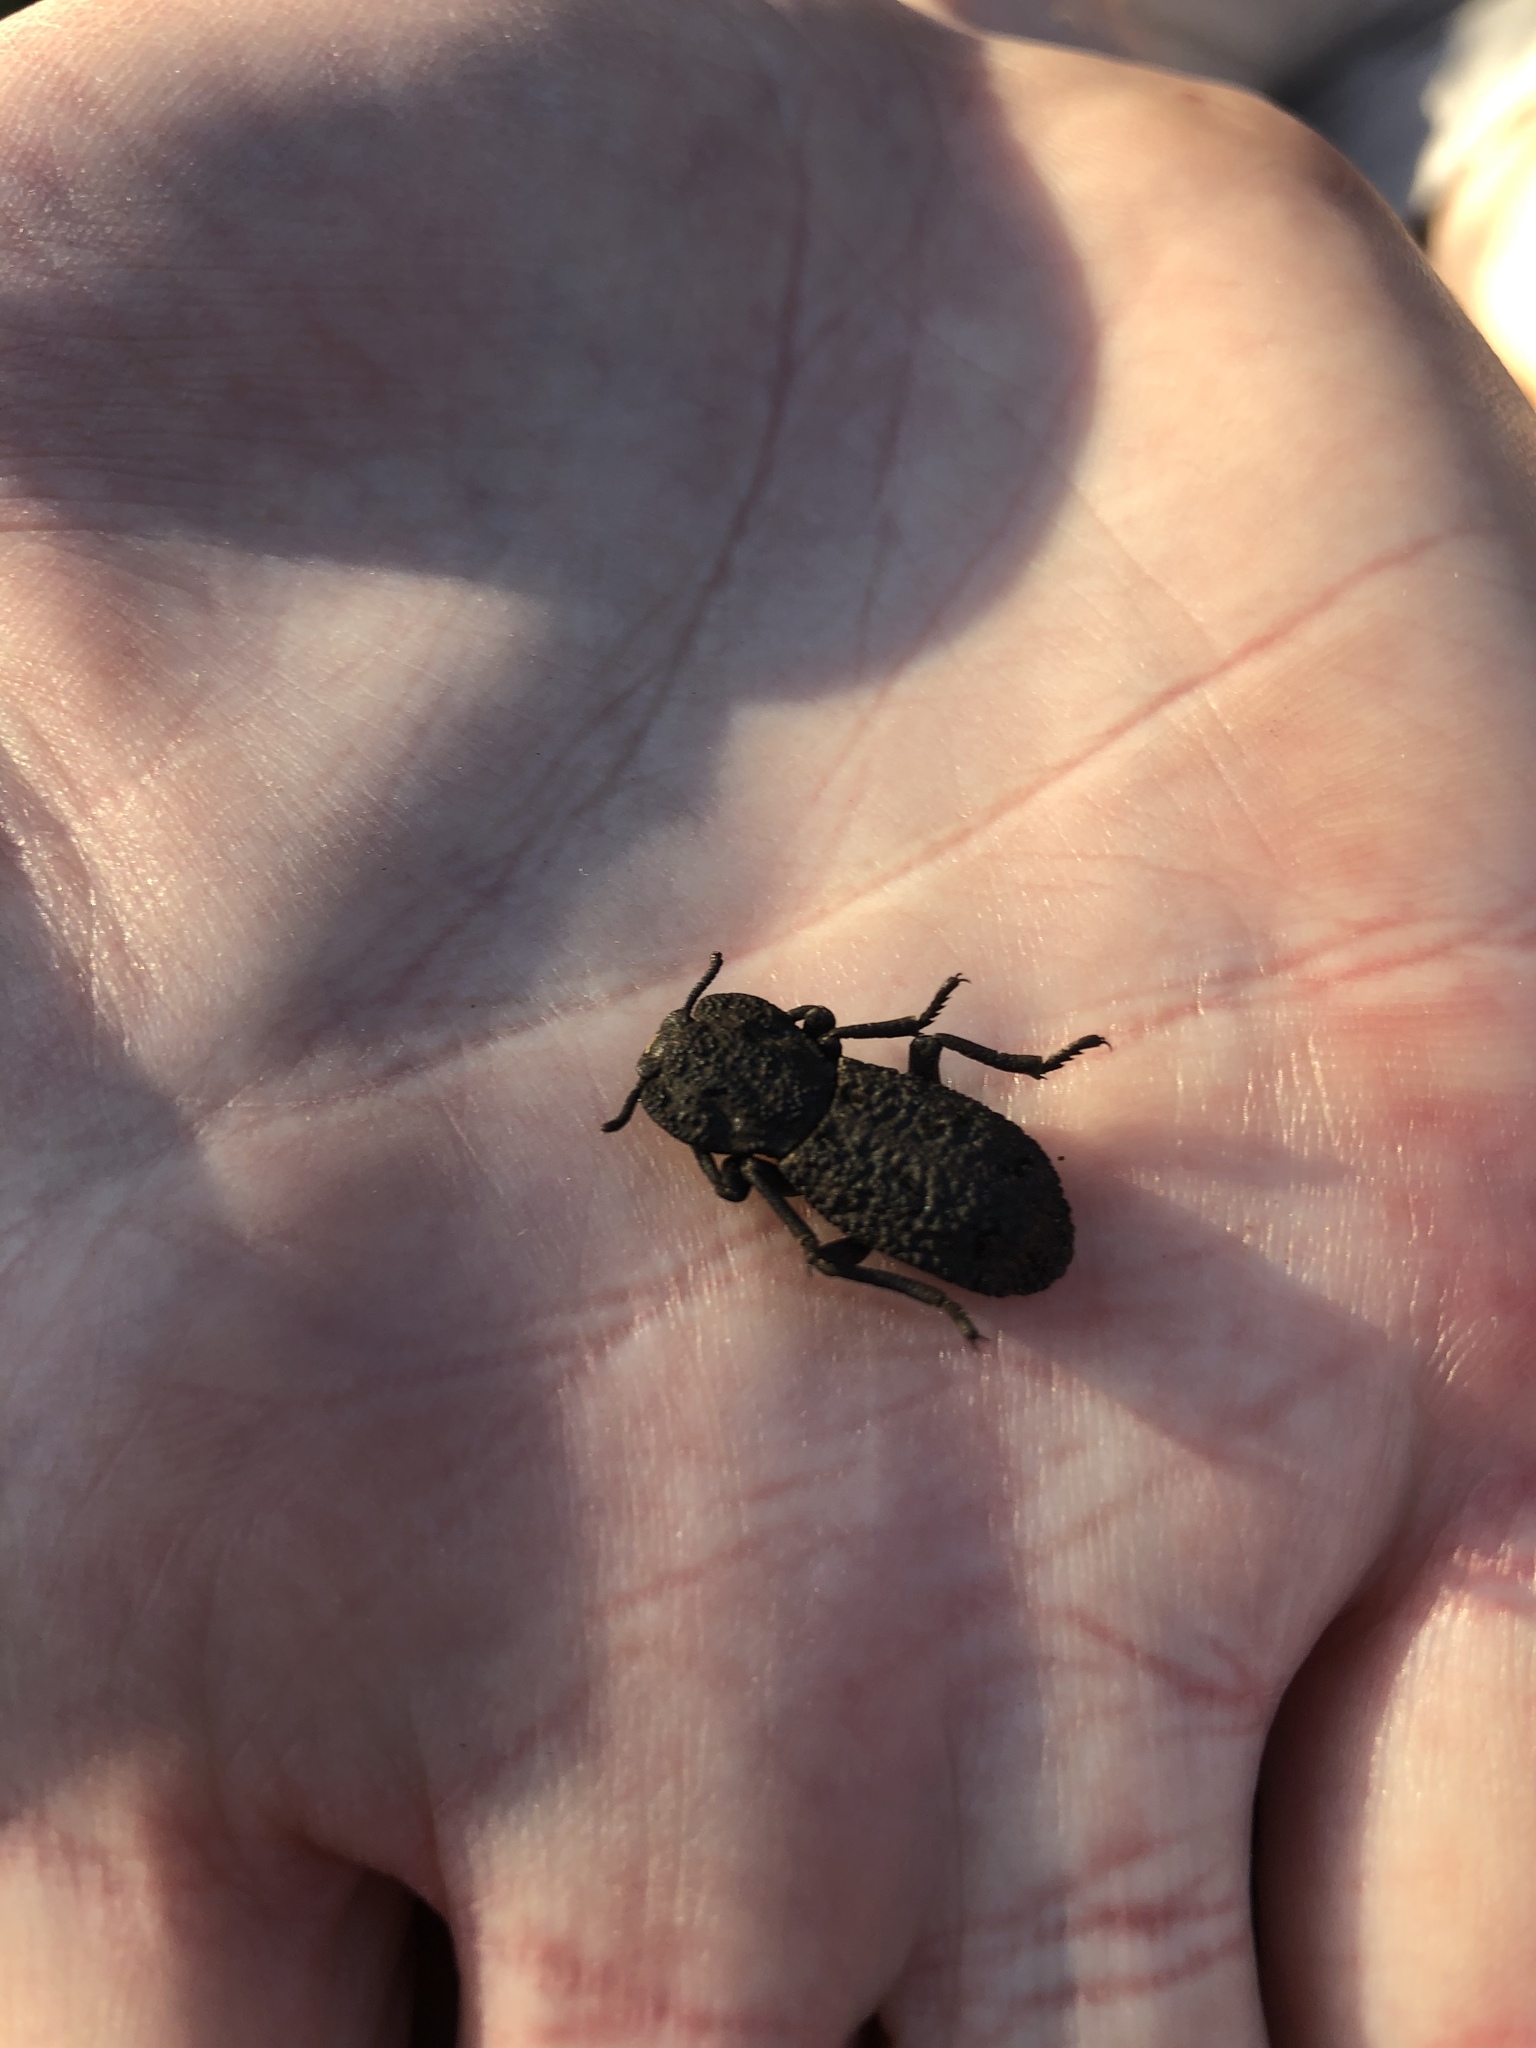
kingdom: Animalia
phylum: Arthropoda
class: Insecta
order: Coleoptera
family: Zopheridae
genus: Phloeodes
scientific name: Phloeodes diabolicus
